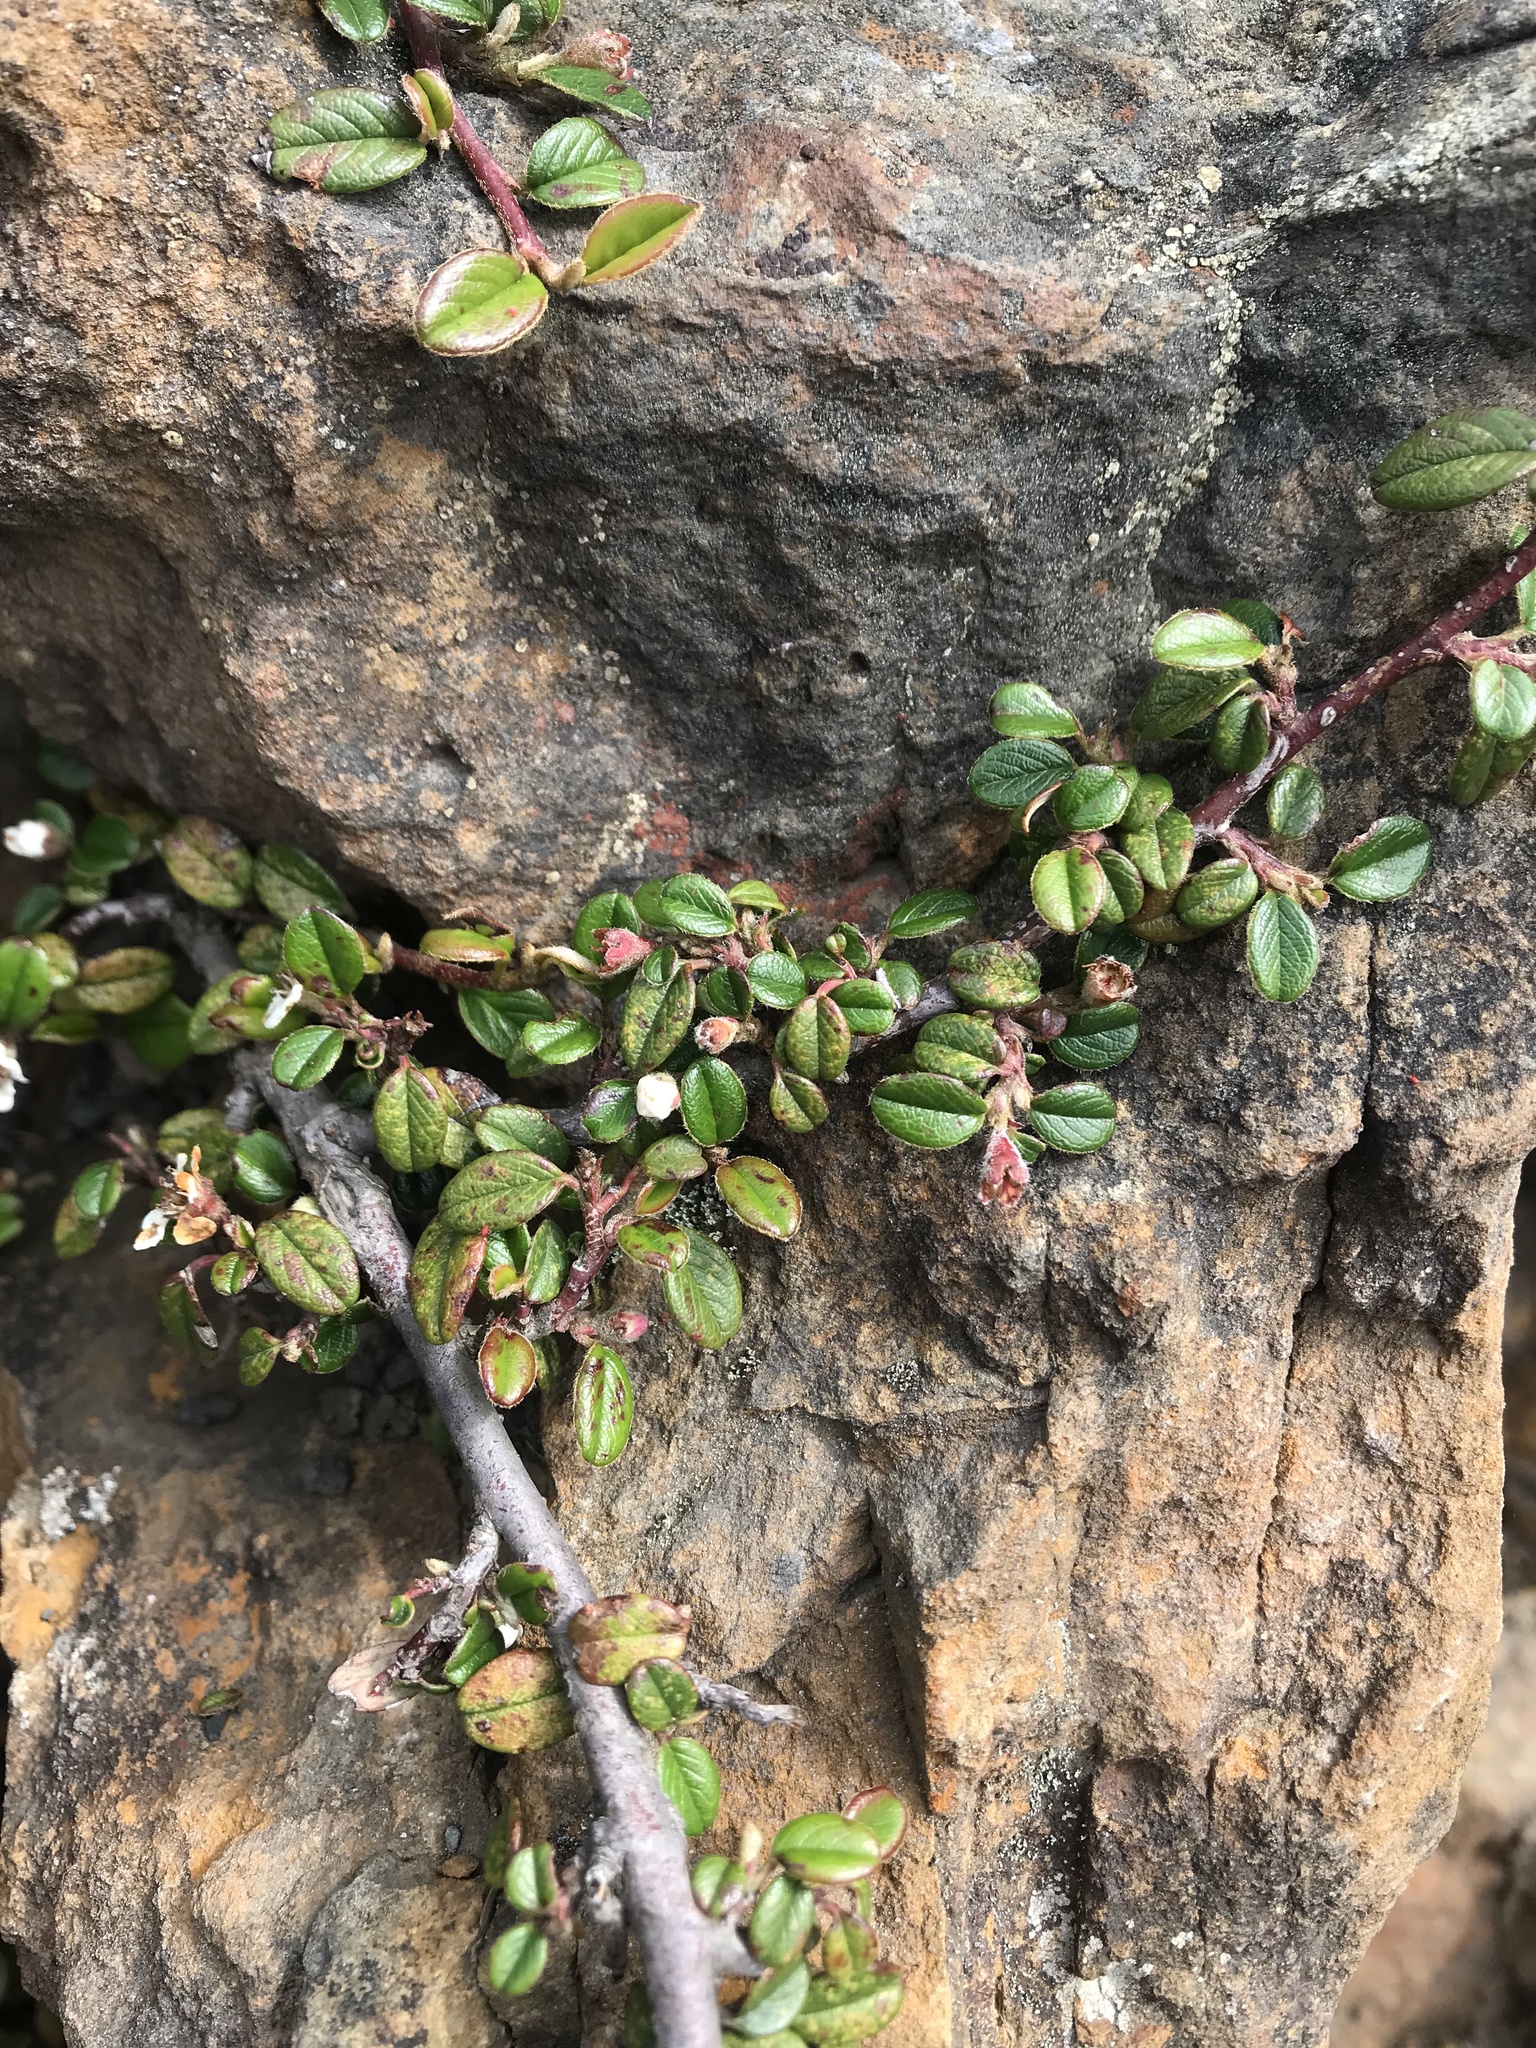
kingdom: Plantae
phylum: Tracheophyta
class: Magnoliopsida
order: Rosales
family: Rosaceae
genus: Cotoneaster
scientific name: Cotoneaster morrisonensis
